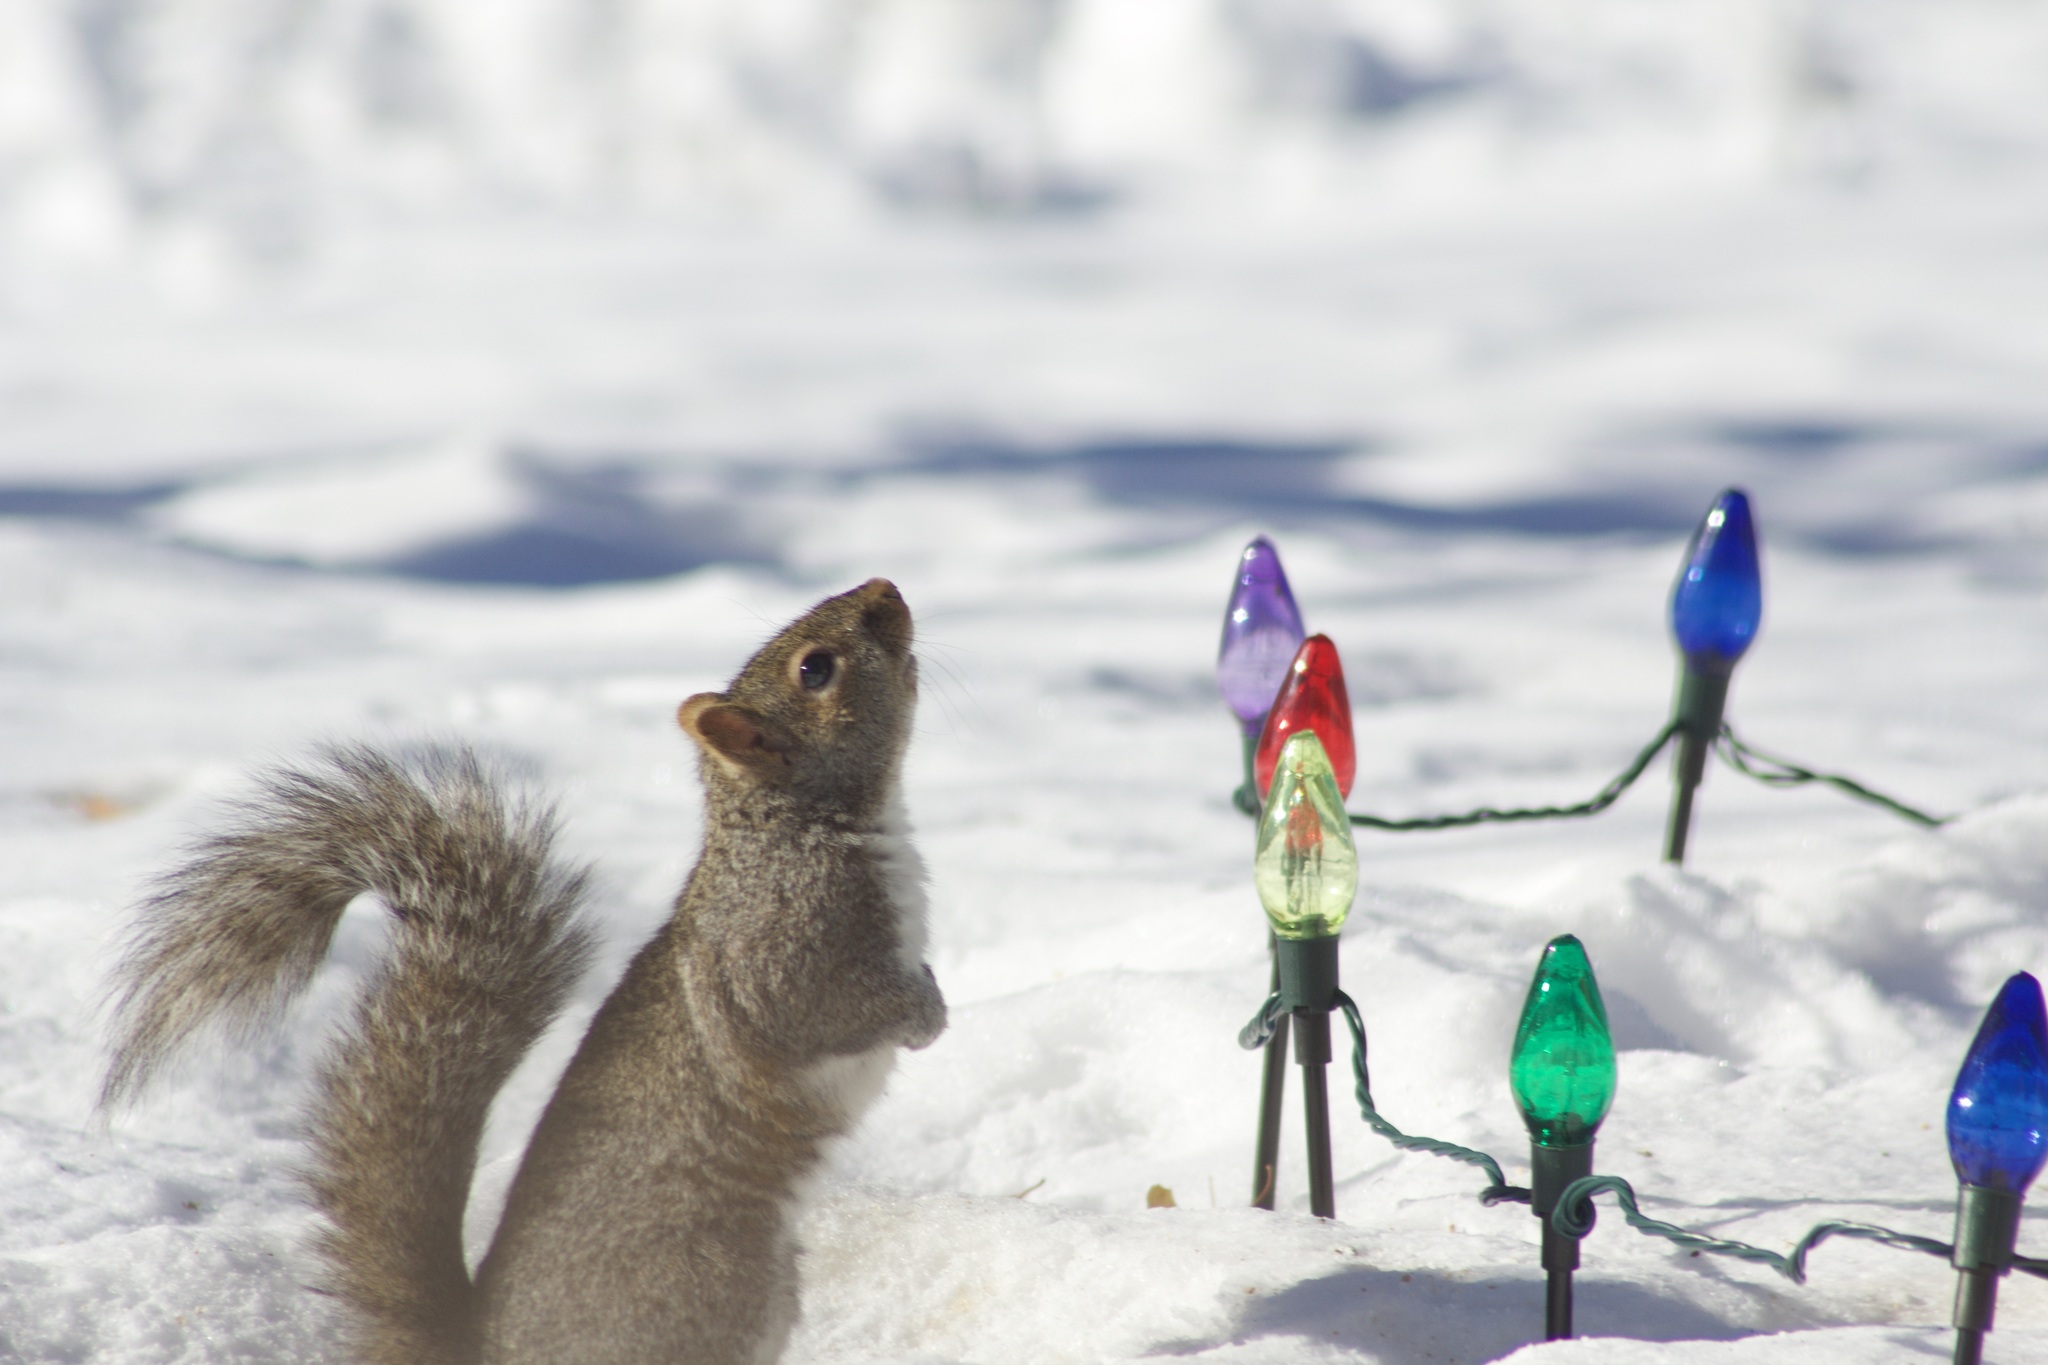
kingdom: Animalia
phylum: Chordata
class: Mammalia
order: Rodentia
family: Sciuridae
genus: Sciurus
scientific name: Sciurus carolinensis
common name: Eastern gray squirrel
